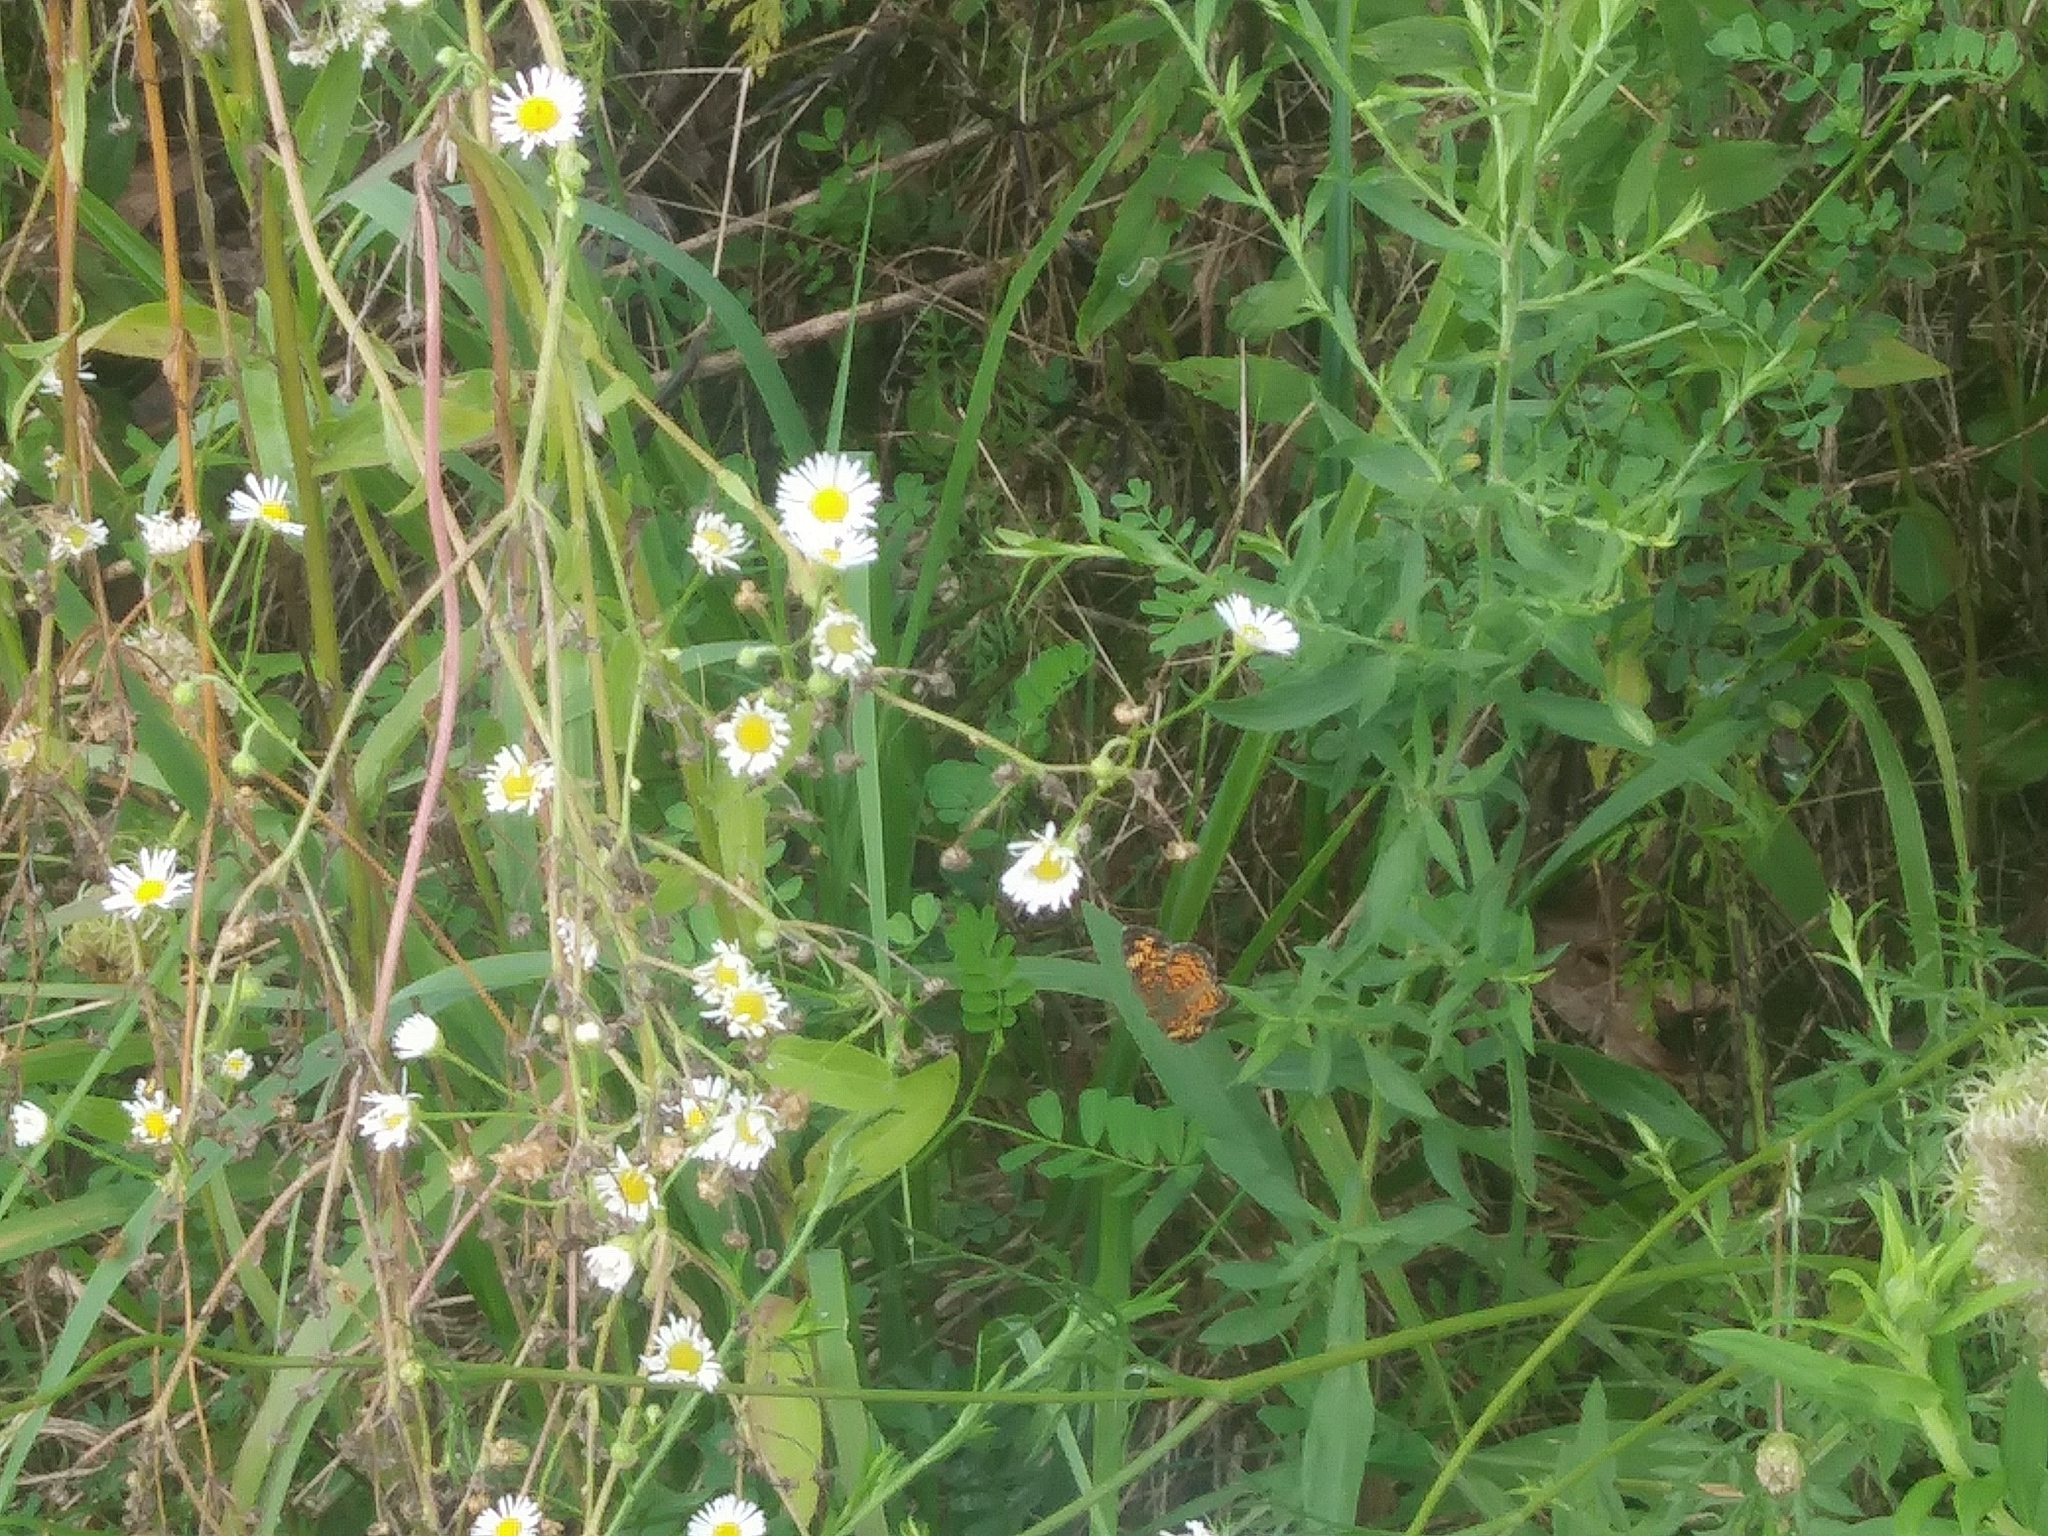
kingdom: Animalia
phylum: Arthropoda
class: Insecta
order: Lepidoptera
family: Nymphalidae
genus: Phyciodes
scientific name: Phyciodes tharos
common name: Pearl crescent
